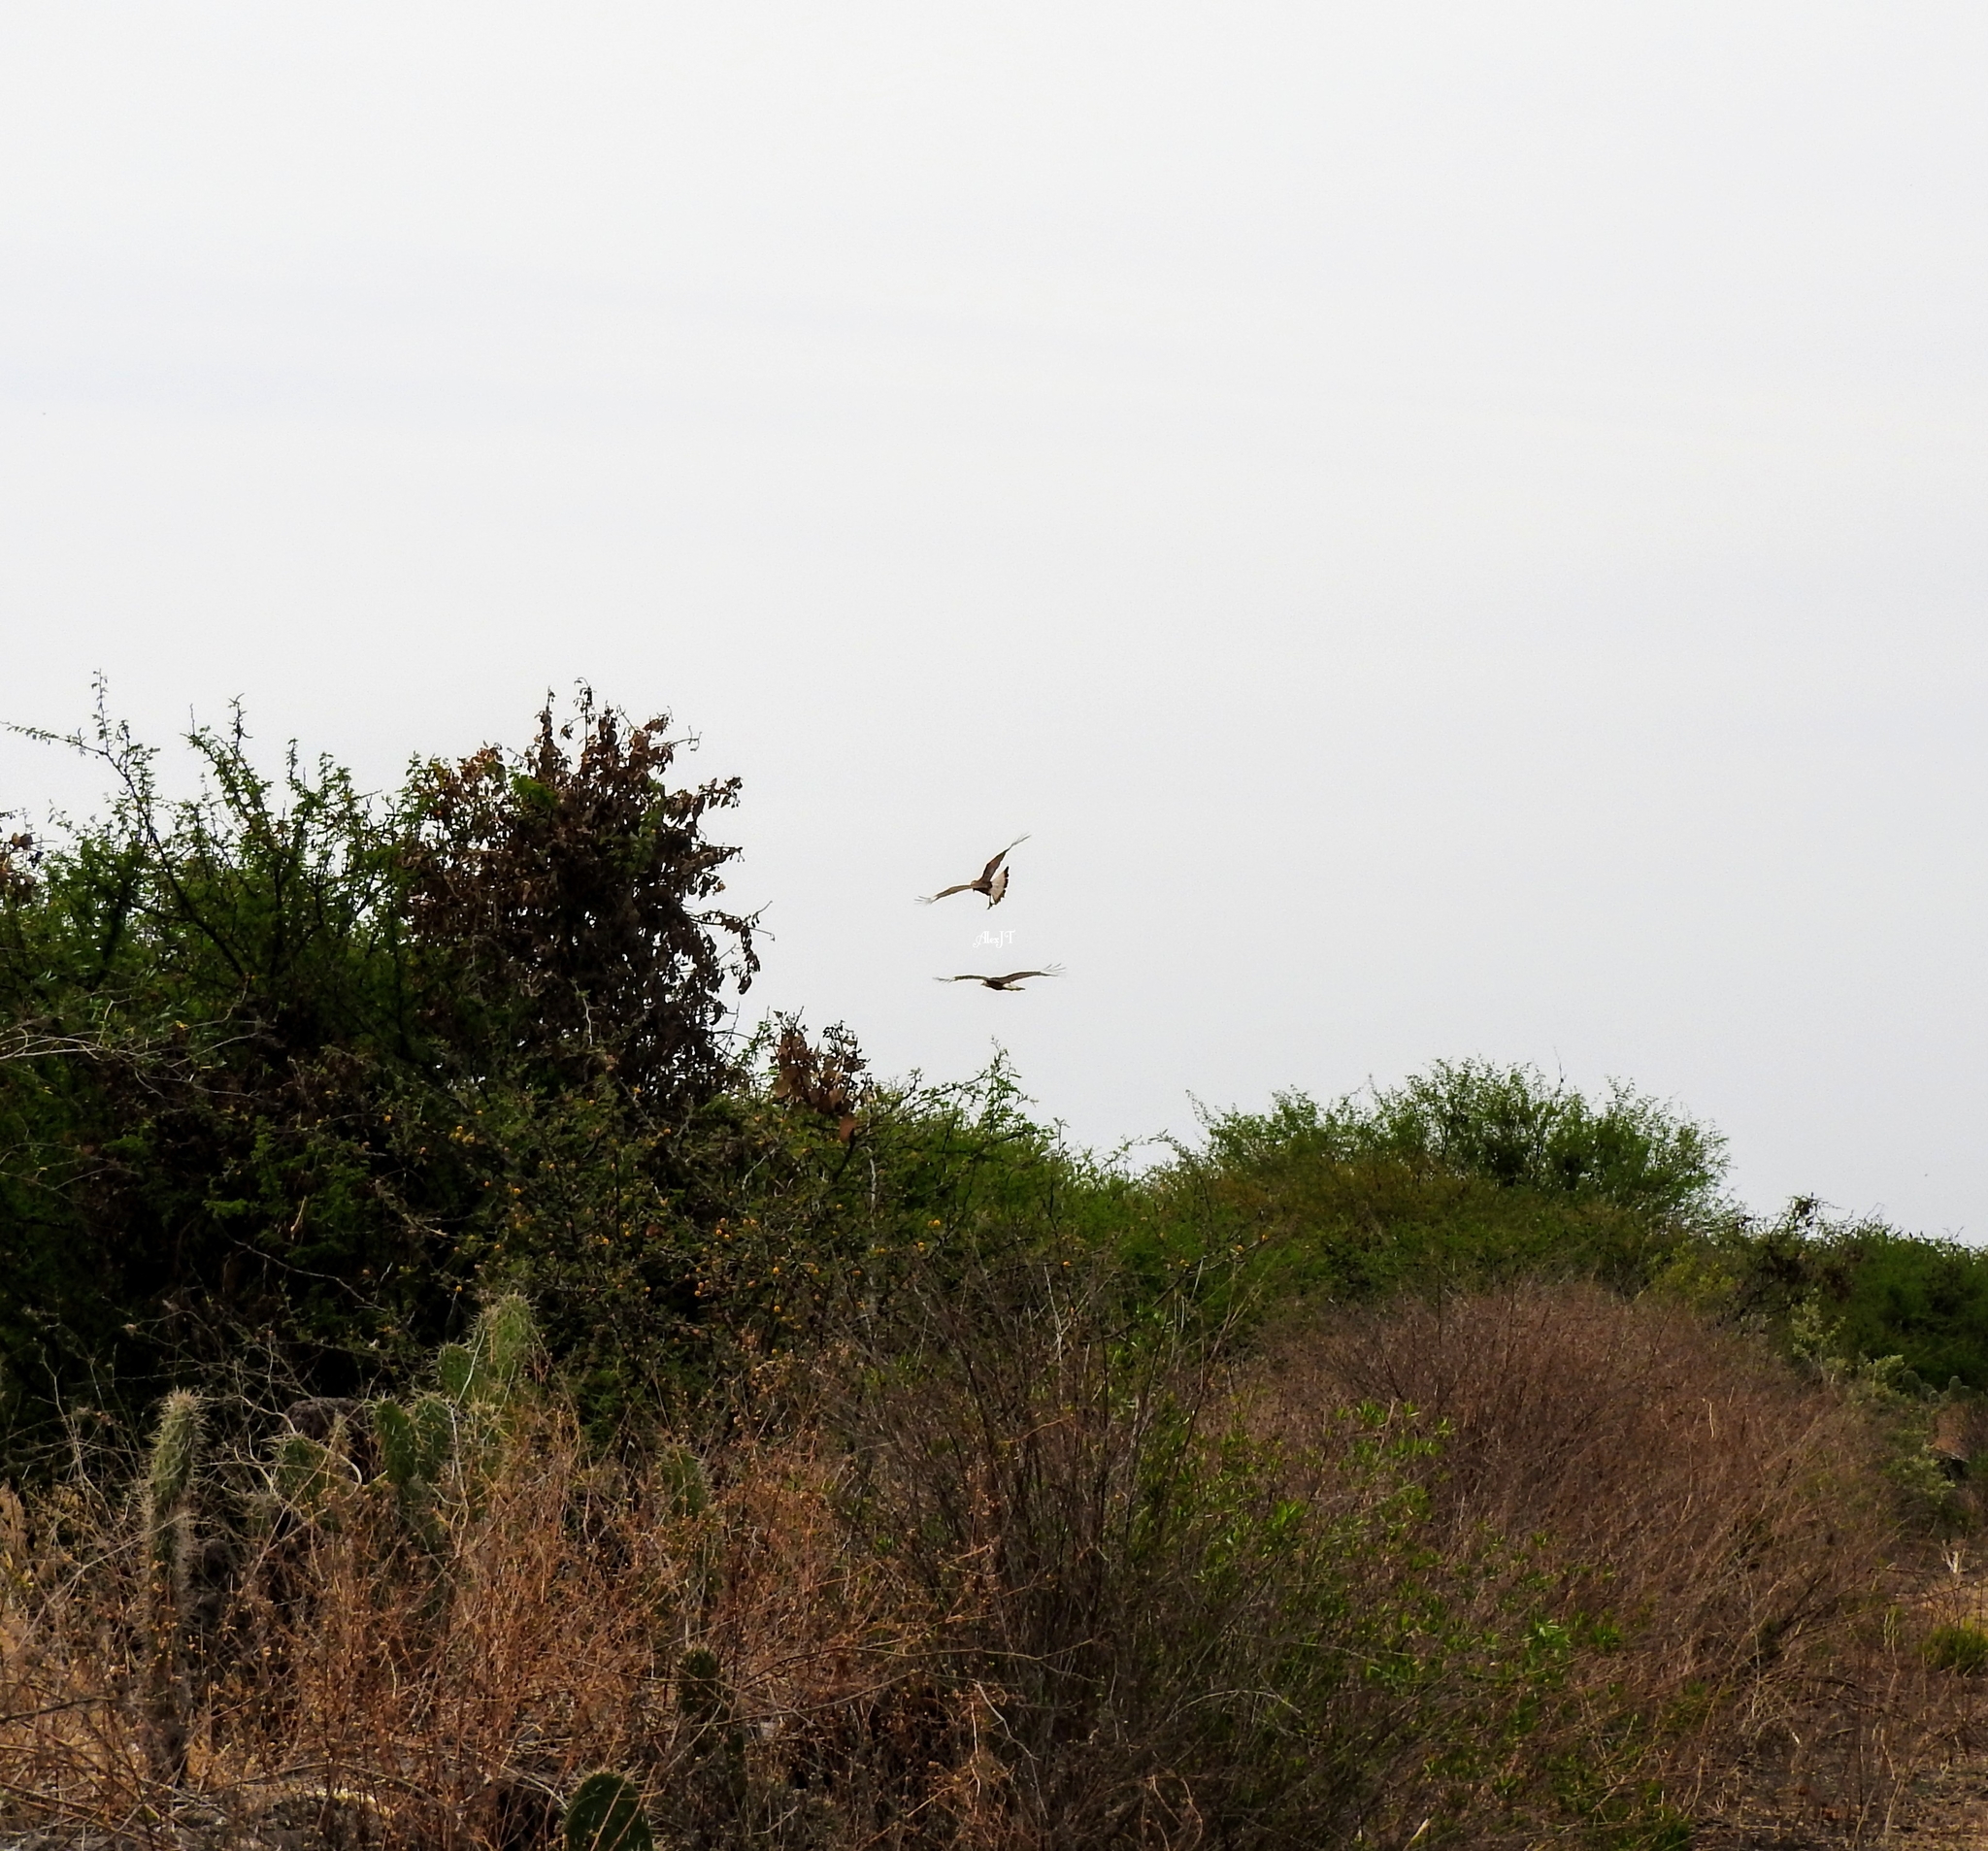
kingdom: Animalia
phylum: Chordata
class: Aves
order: Falconiformes
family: Falconidae
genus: Caracara
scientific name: Caracara plancus
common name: Southern caracara
